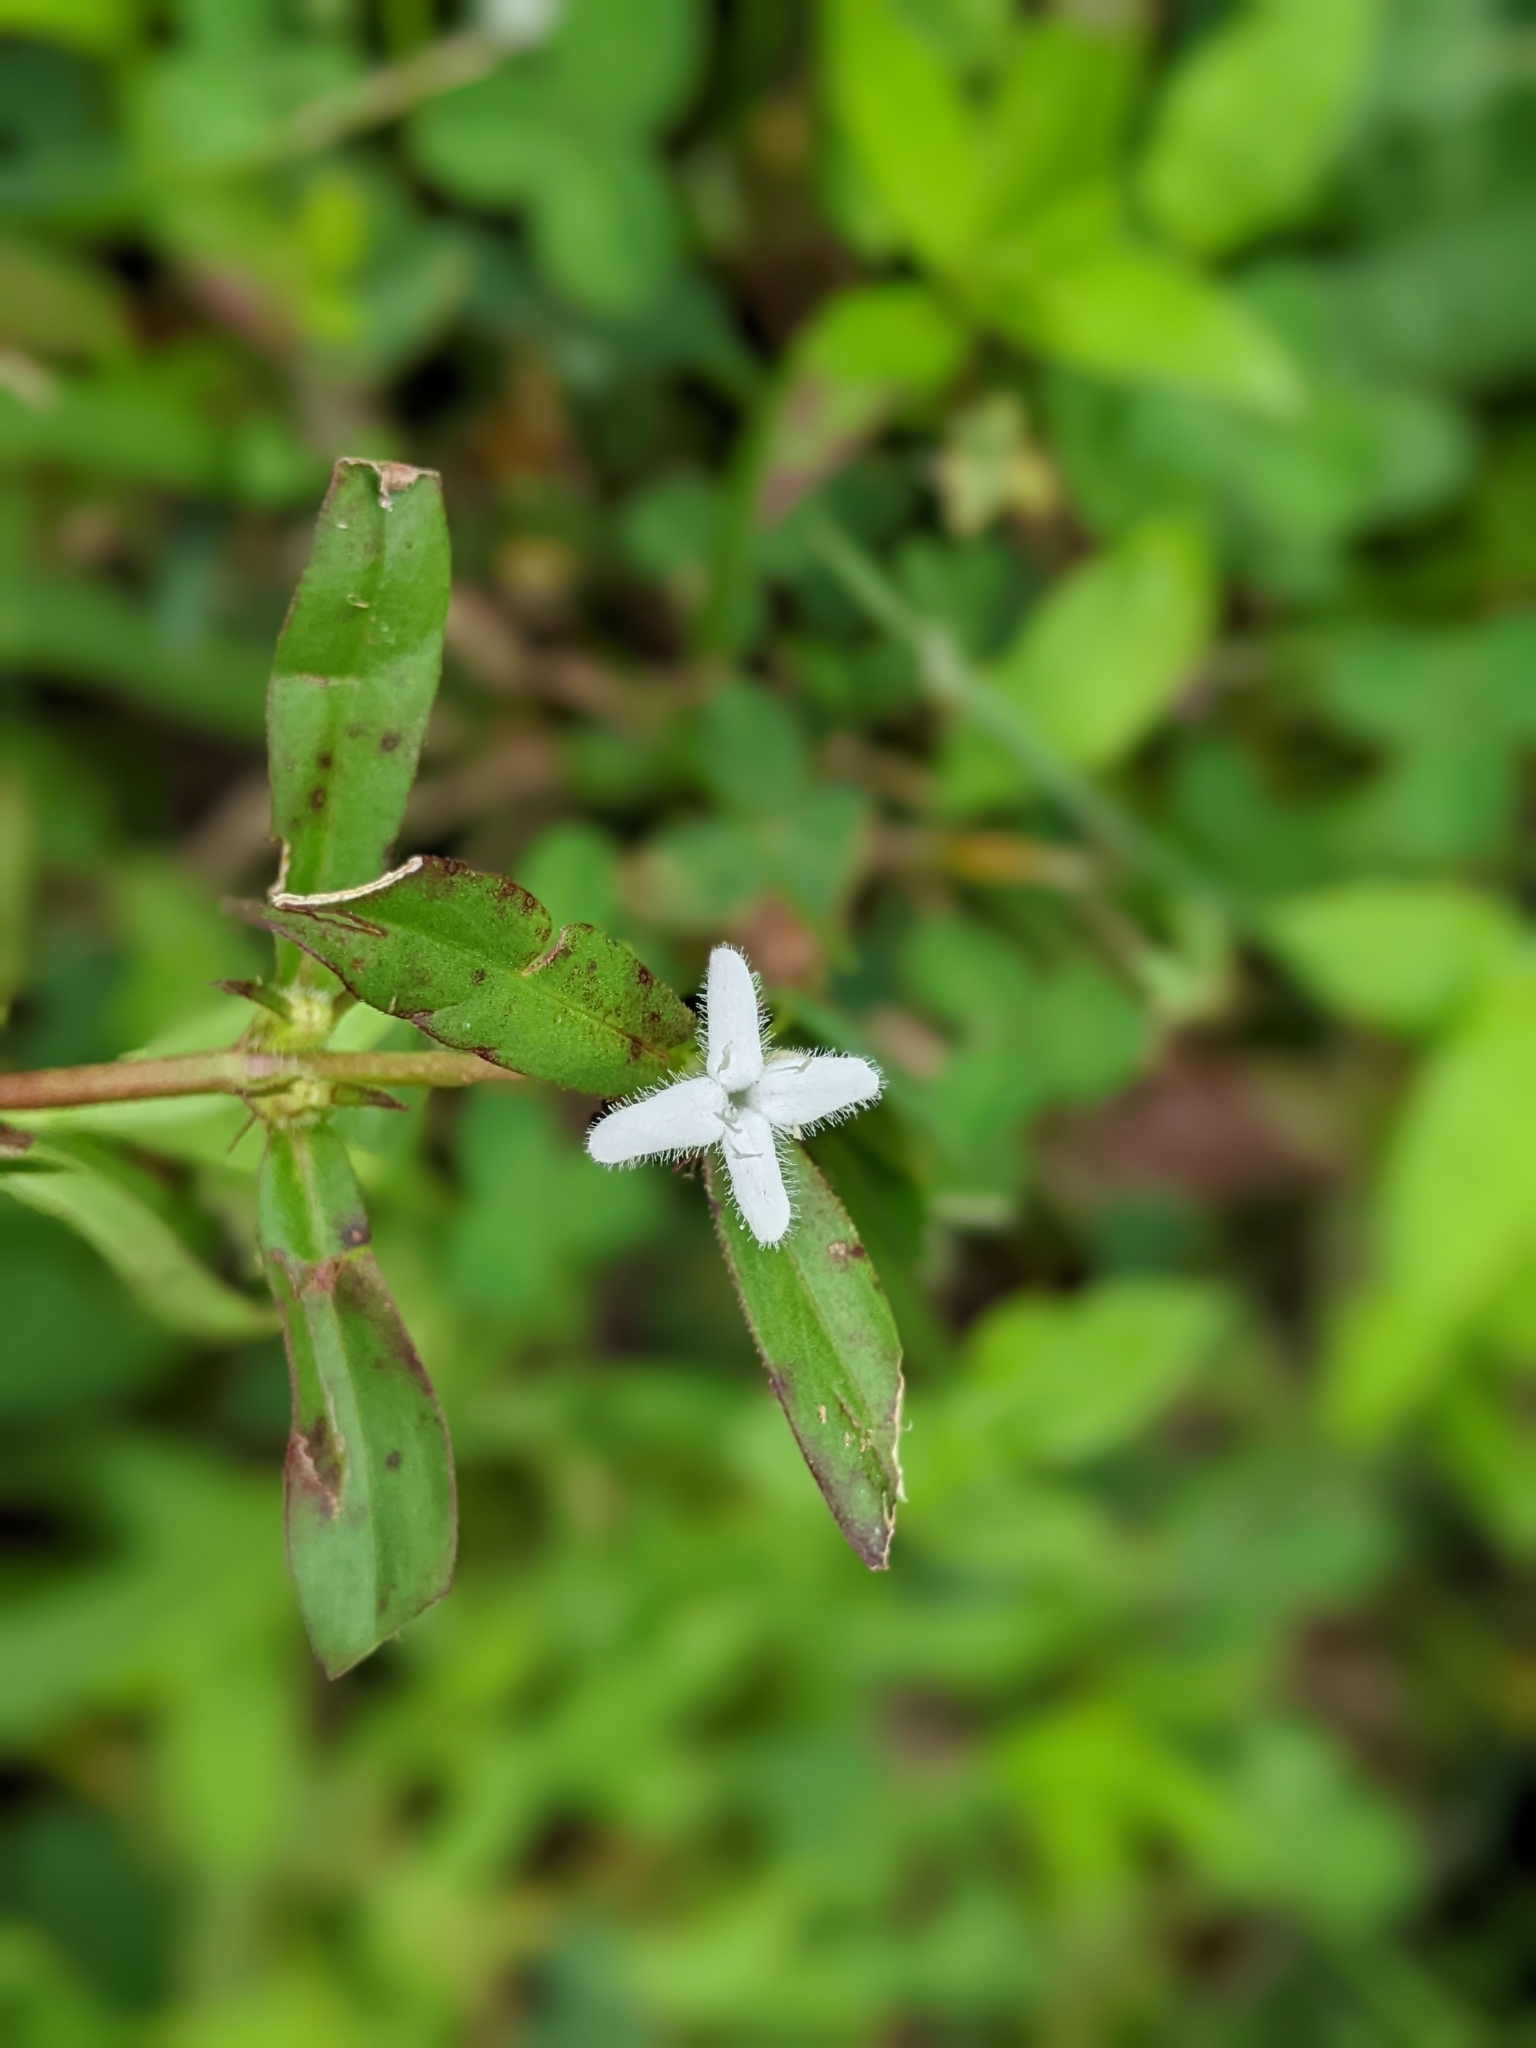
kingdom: Plantae
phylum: Tracheophyta
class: Magnoliopsida
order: Gentianales
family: Rubiaceae
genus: Diodia
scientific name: Diodia virginiana
